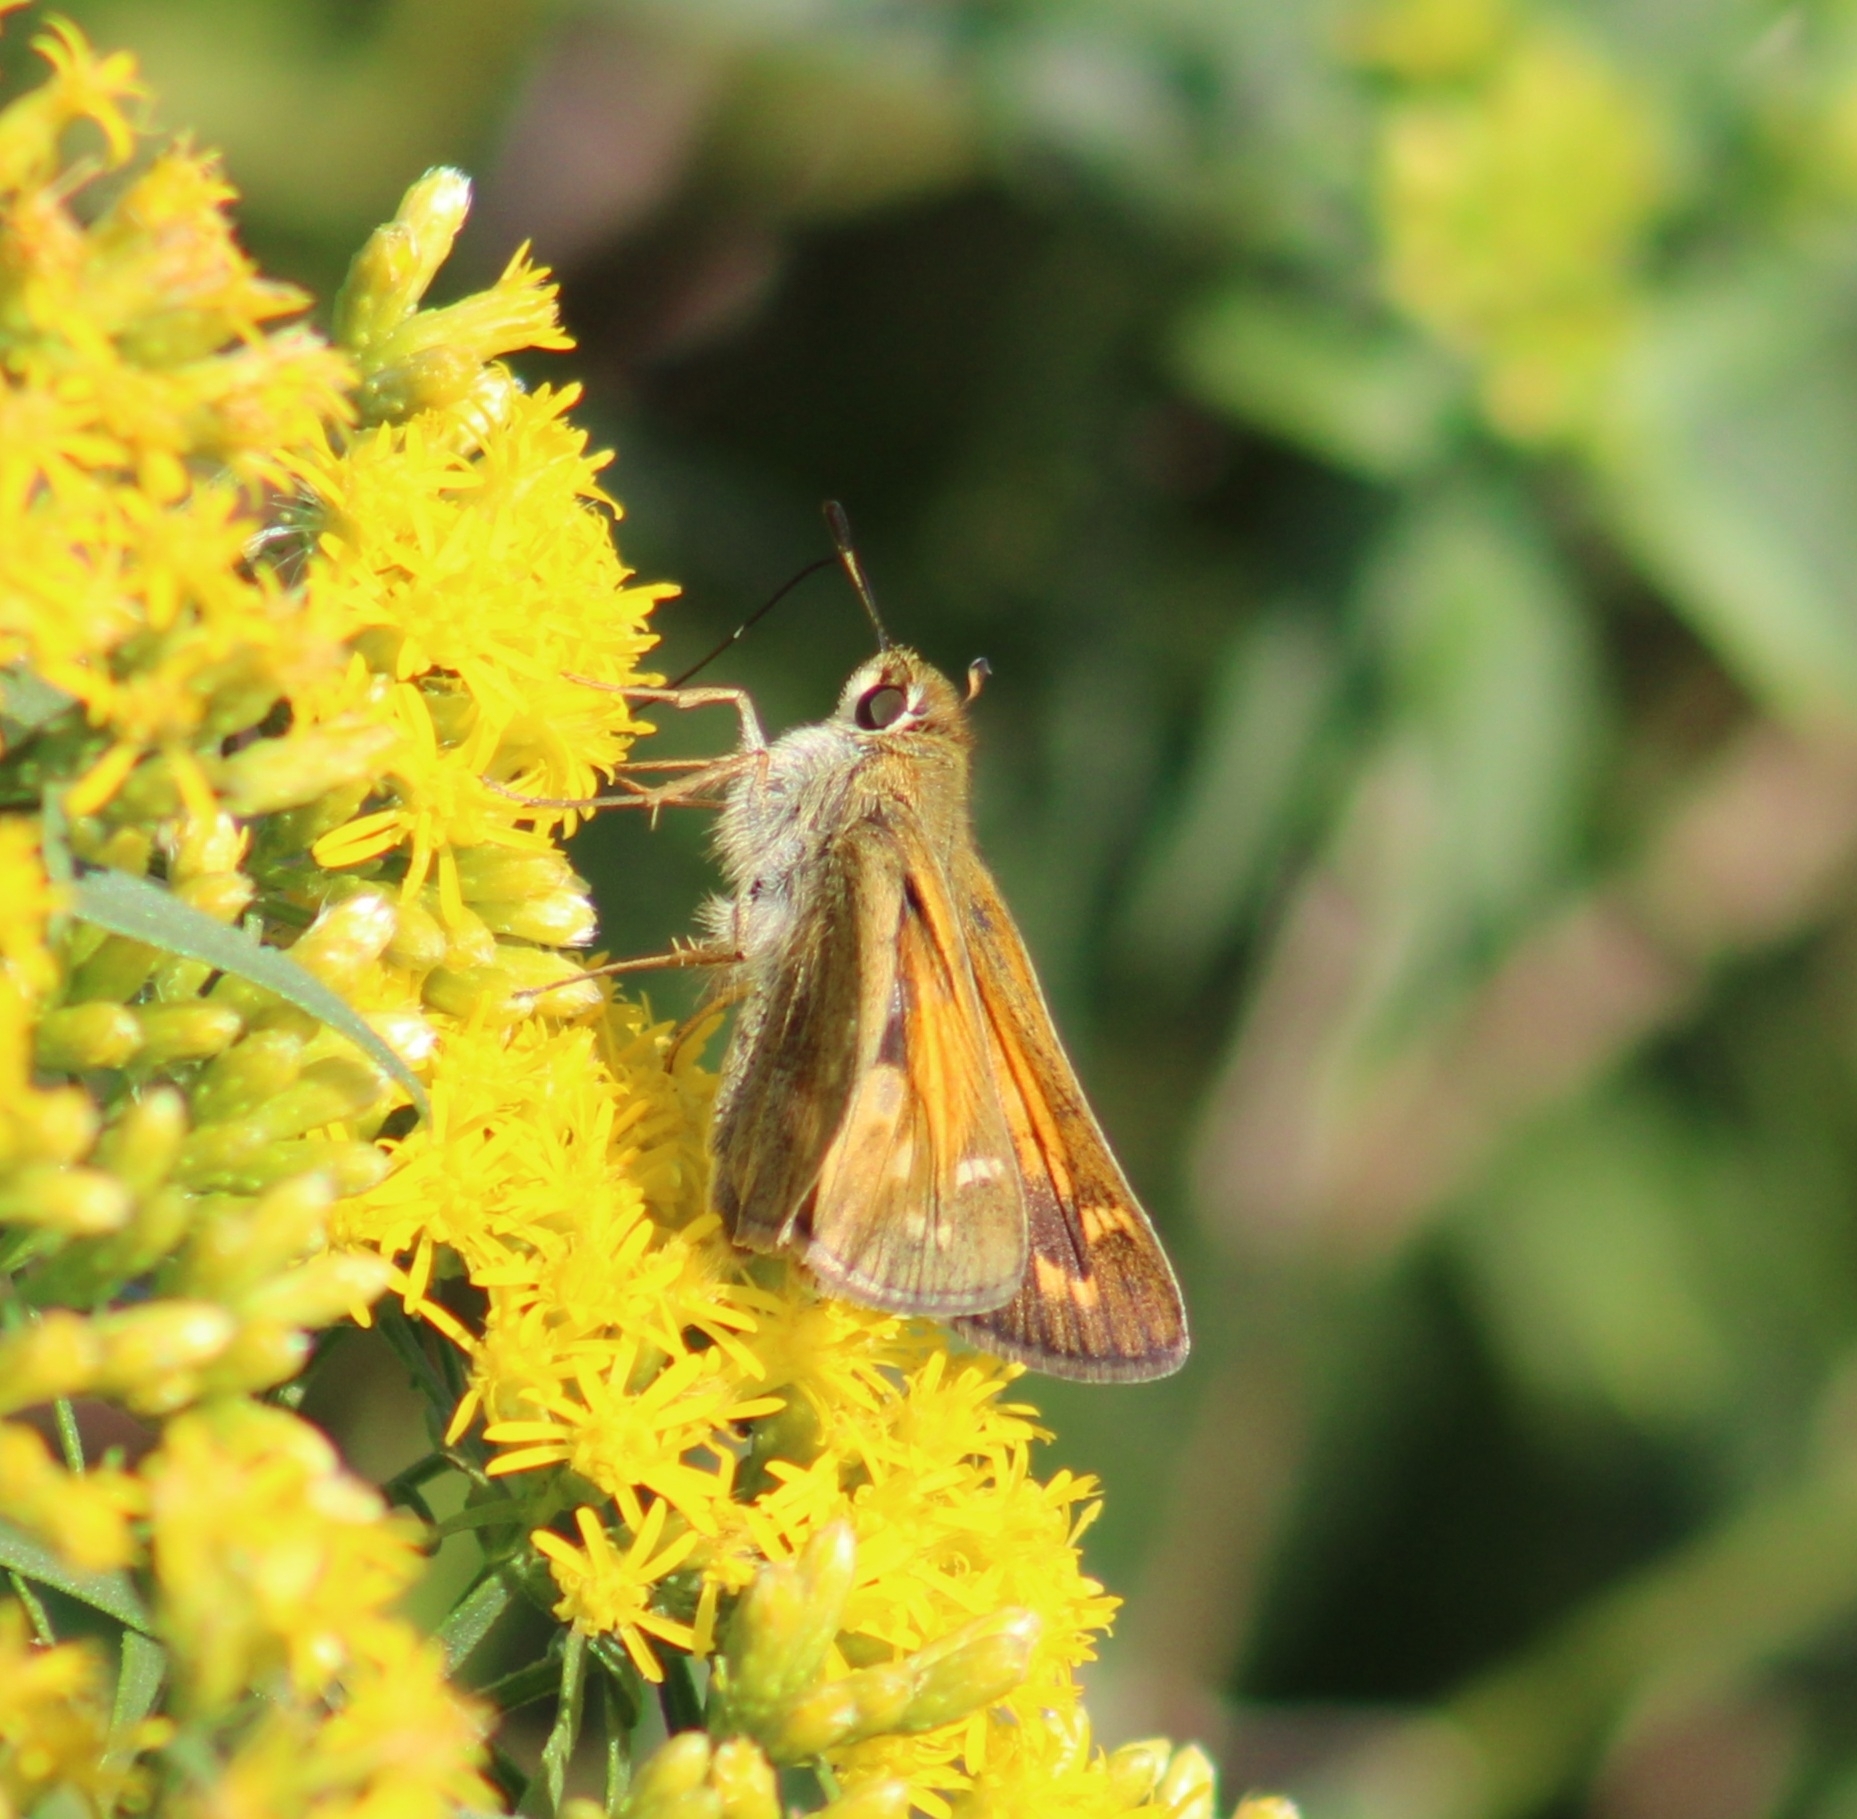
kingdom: Animalia
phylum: Arthropoda
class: Insecta
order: Lepidoptera
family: Hesperiidae
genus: Atalopedes
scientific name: Atalopedes
